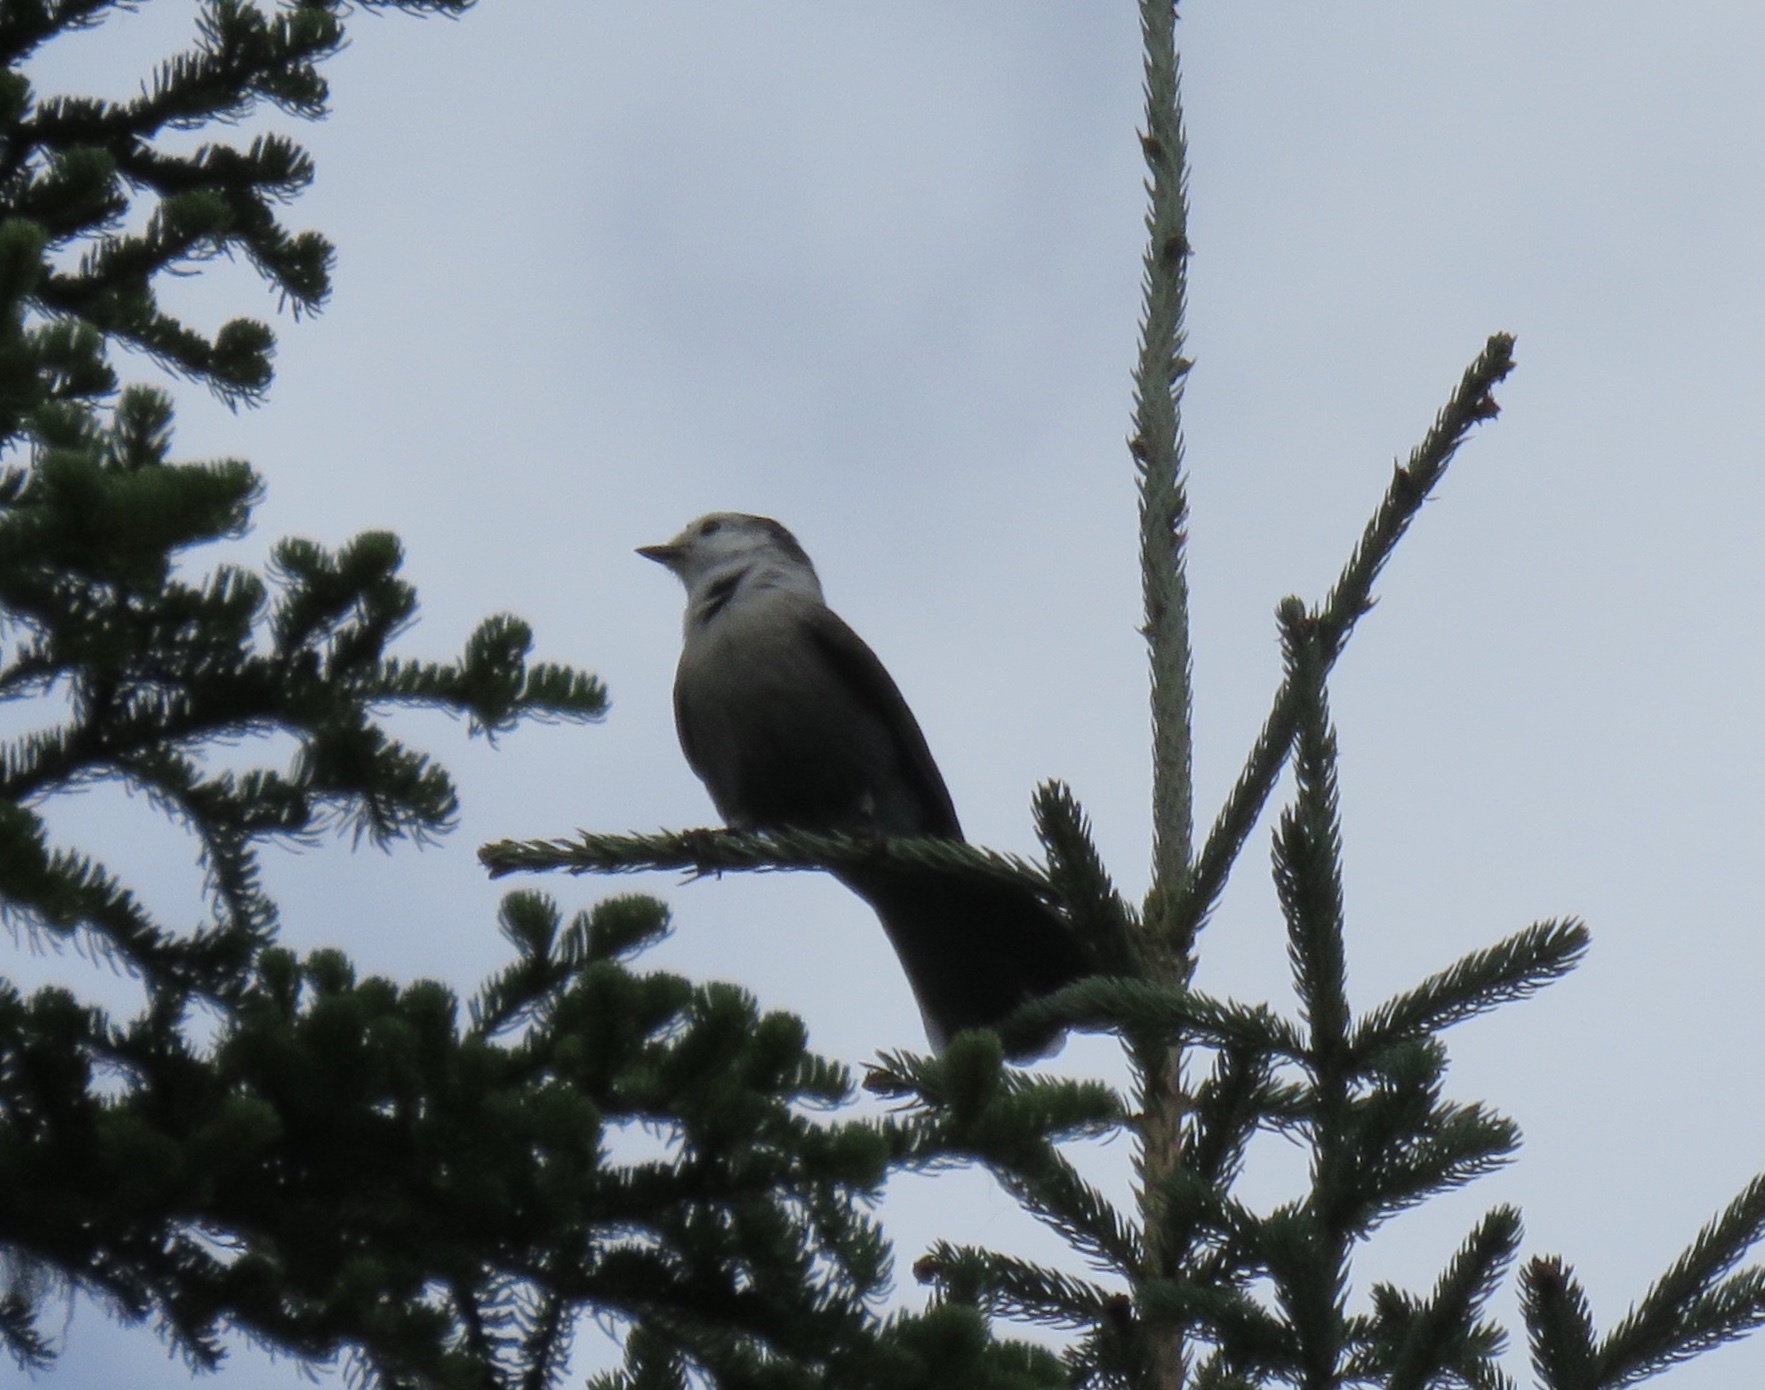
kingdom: Animalia
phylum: Chordata
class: Aves
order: Passeriformes
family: Corvidae
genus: Perisoreus
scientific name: Perisoreus canadensis
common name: Gray jay
